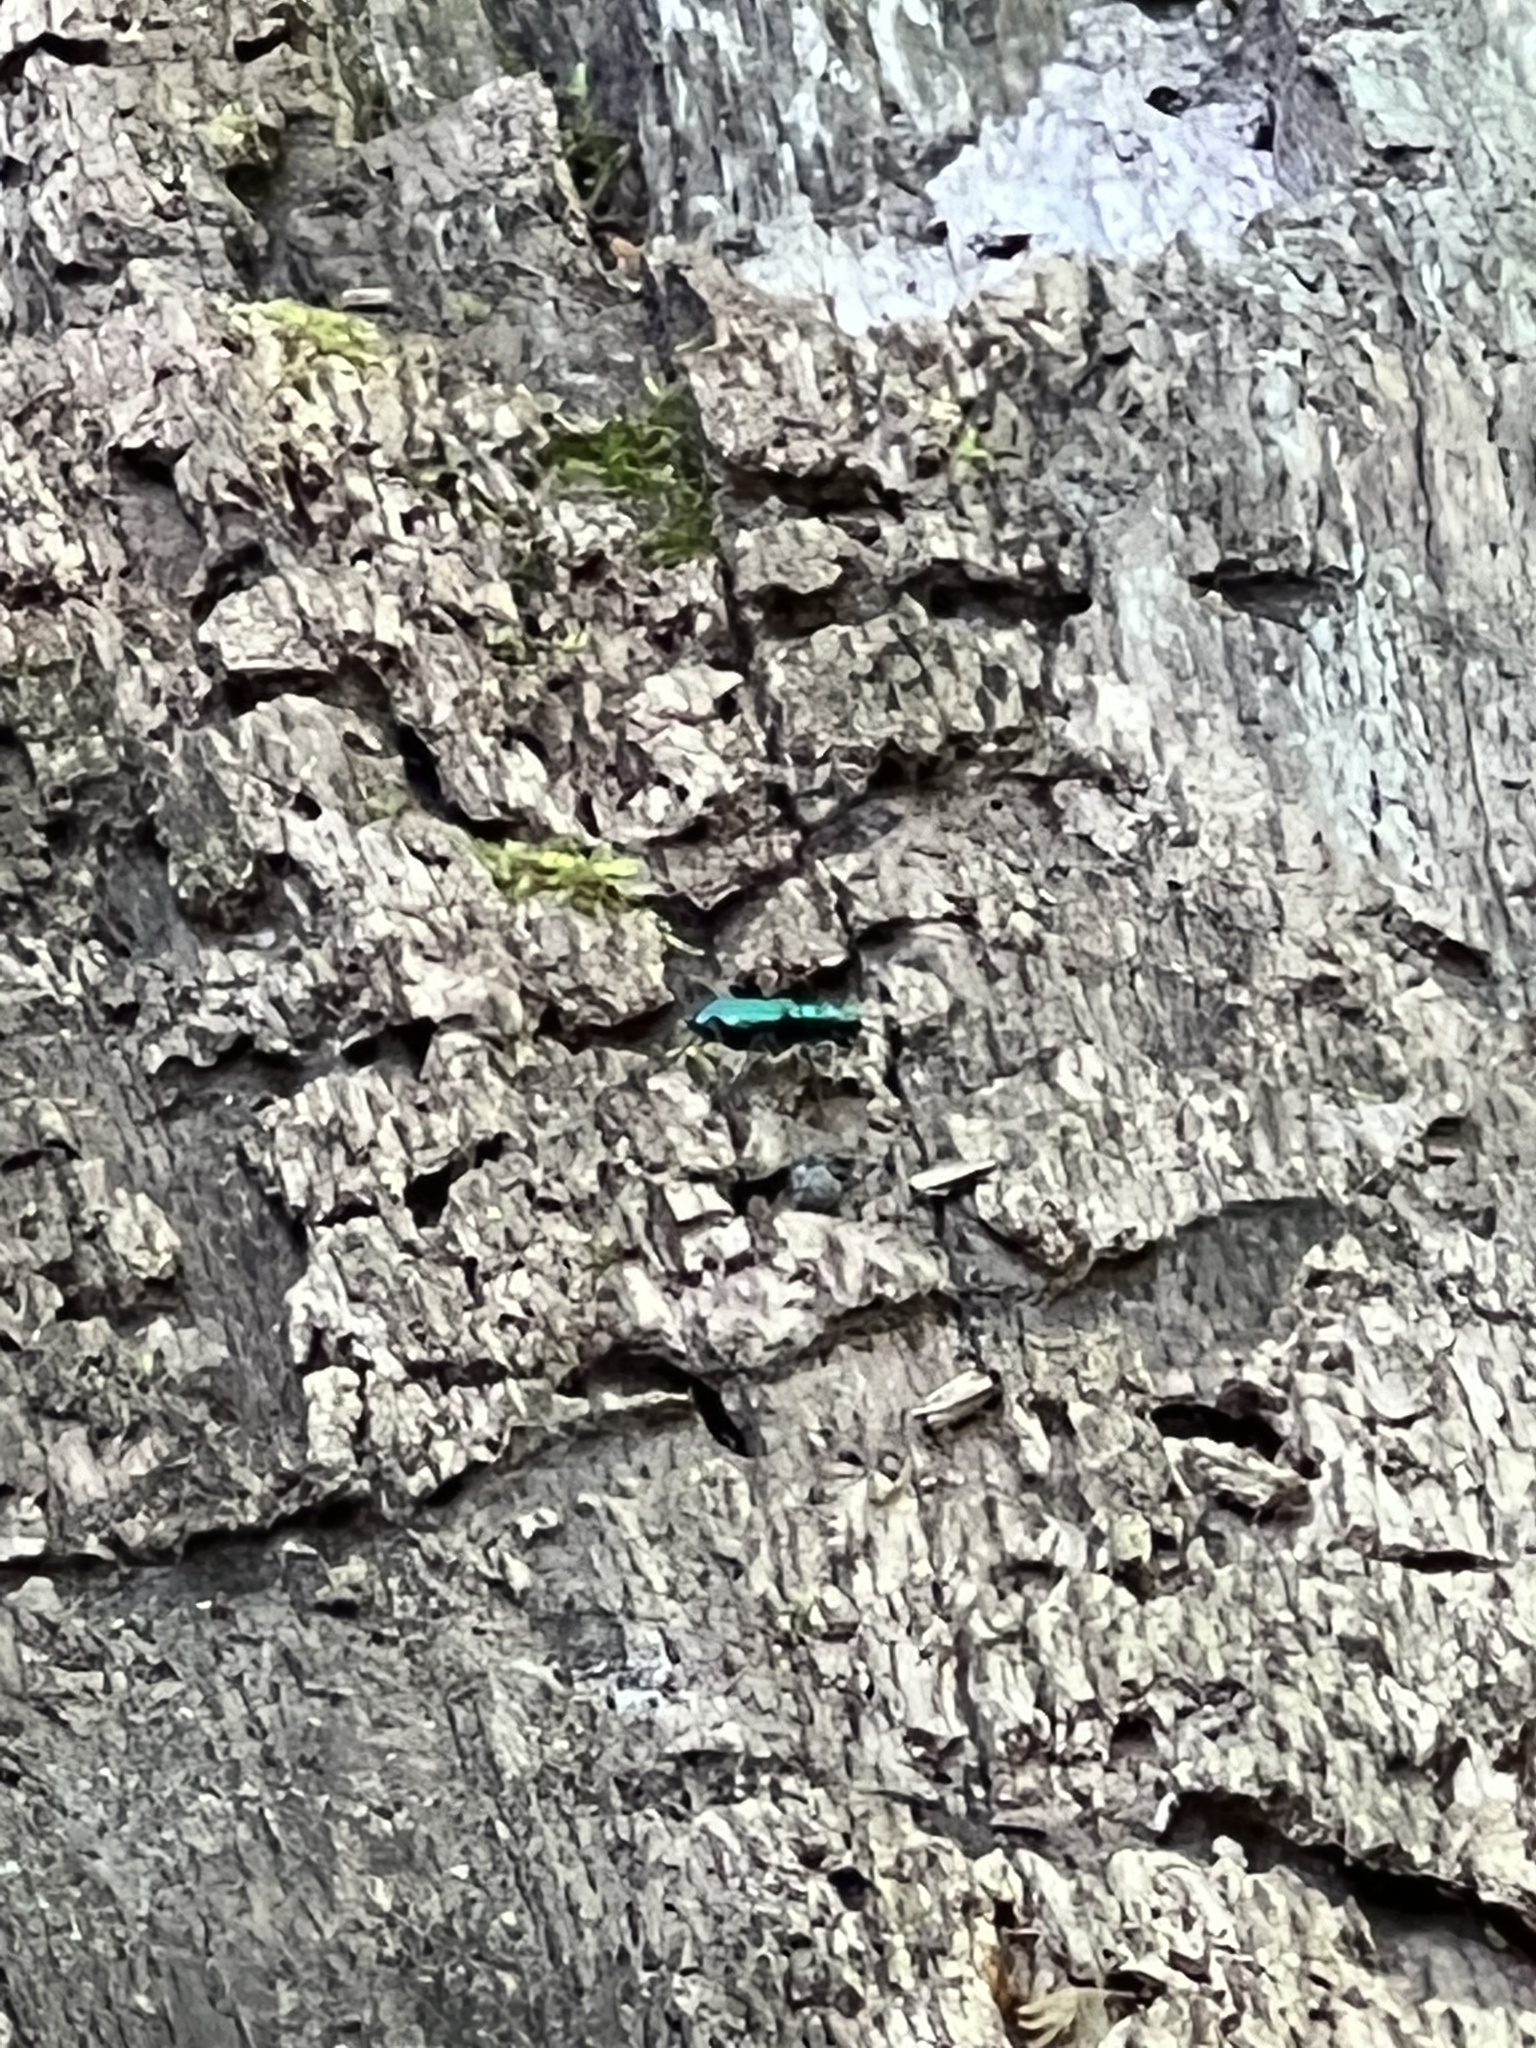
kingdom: Animalia
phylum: Arthropoda
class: Insecta
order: Coleoptera
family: Carabidae
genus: Cicindela
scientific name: Cicindela sexguttata
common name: Six-spotted tiger beetle
